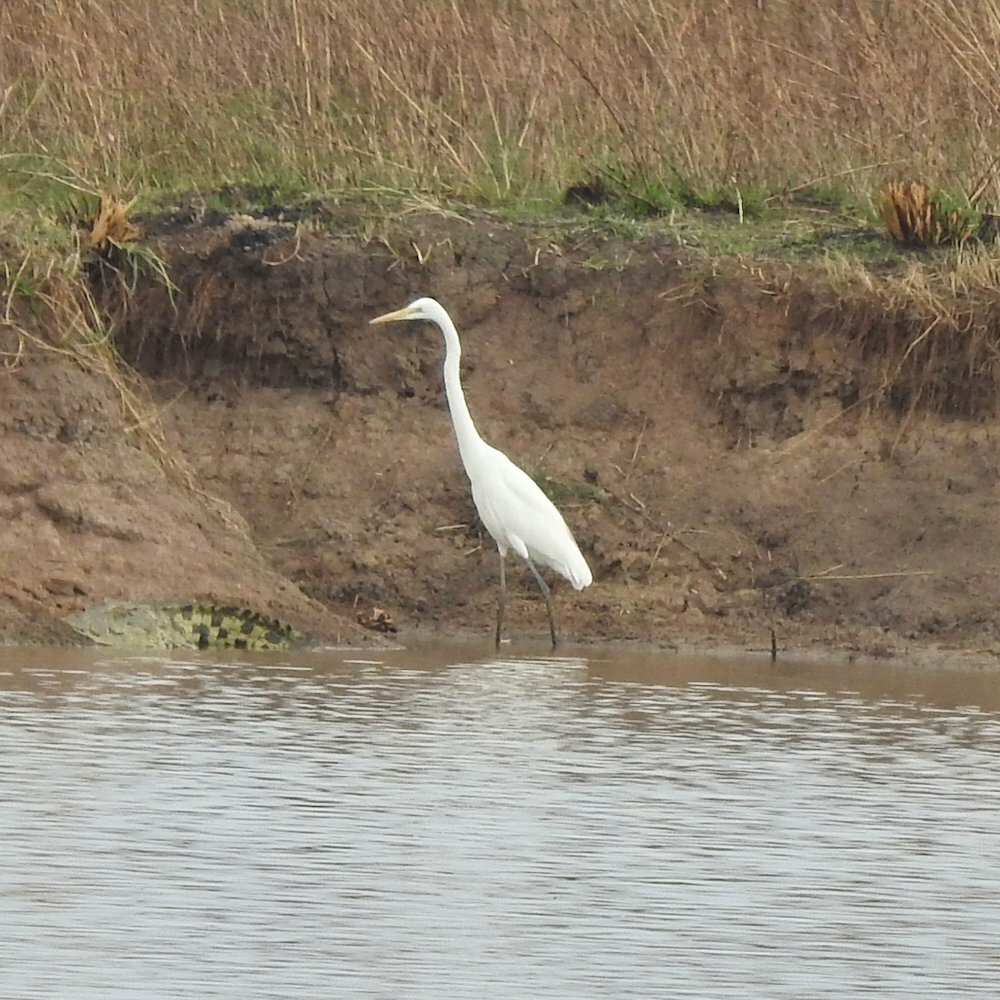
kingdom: Animalia
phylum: Chordata
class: Aves
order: Pelecaniformes
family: Ardeidae
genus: Ardea
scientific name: Ardea alba
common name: Great egret
